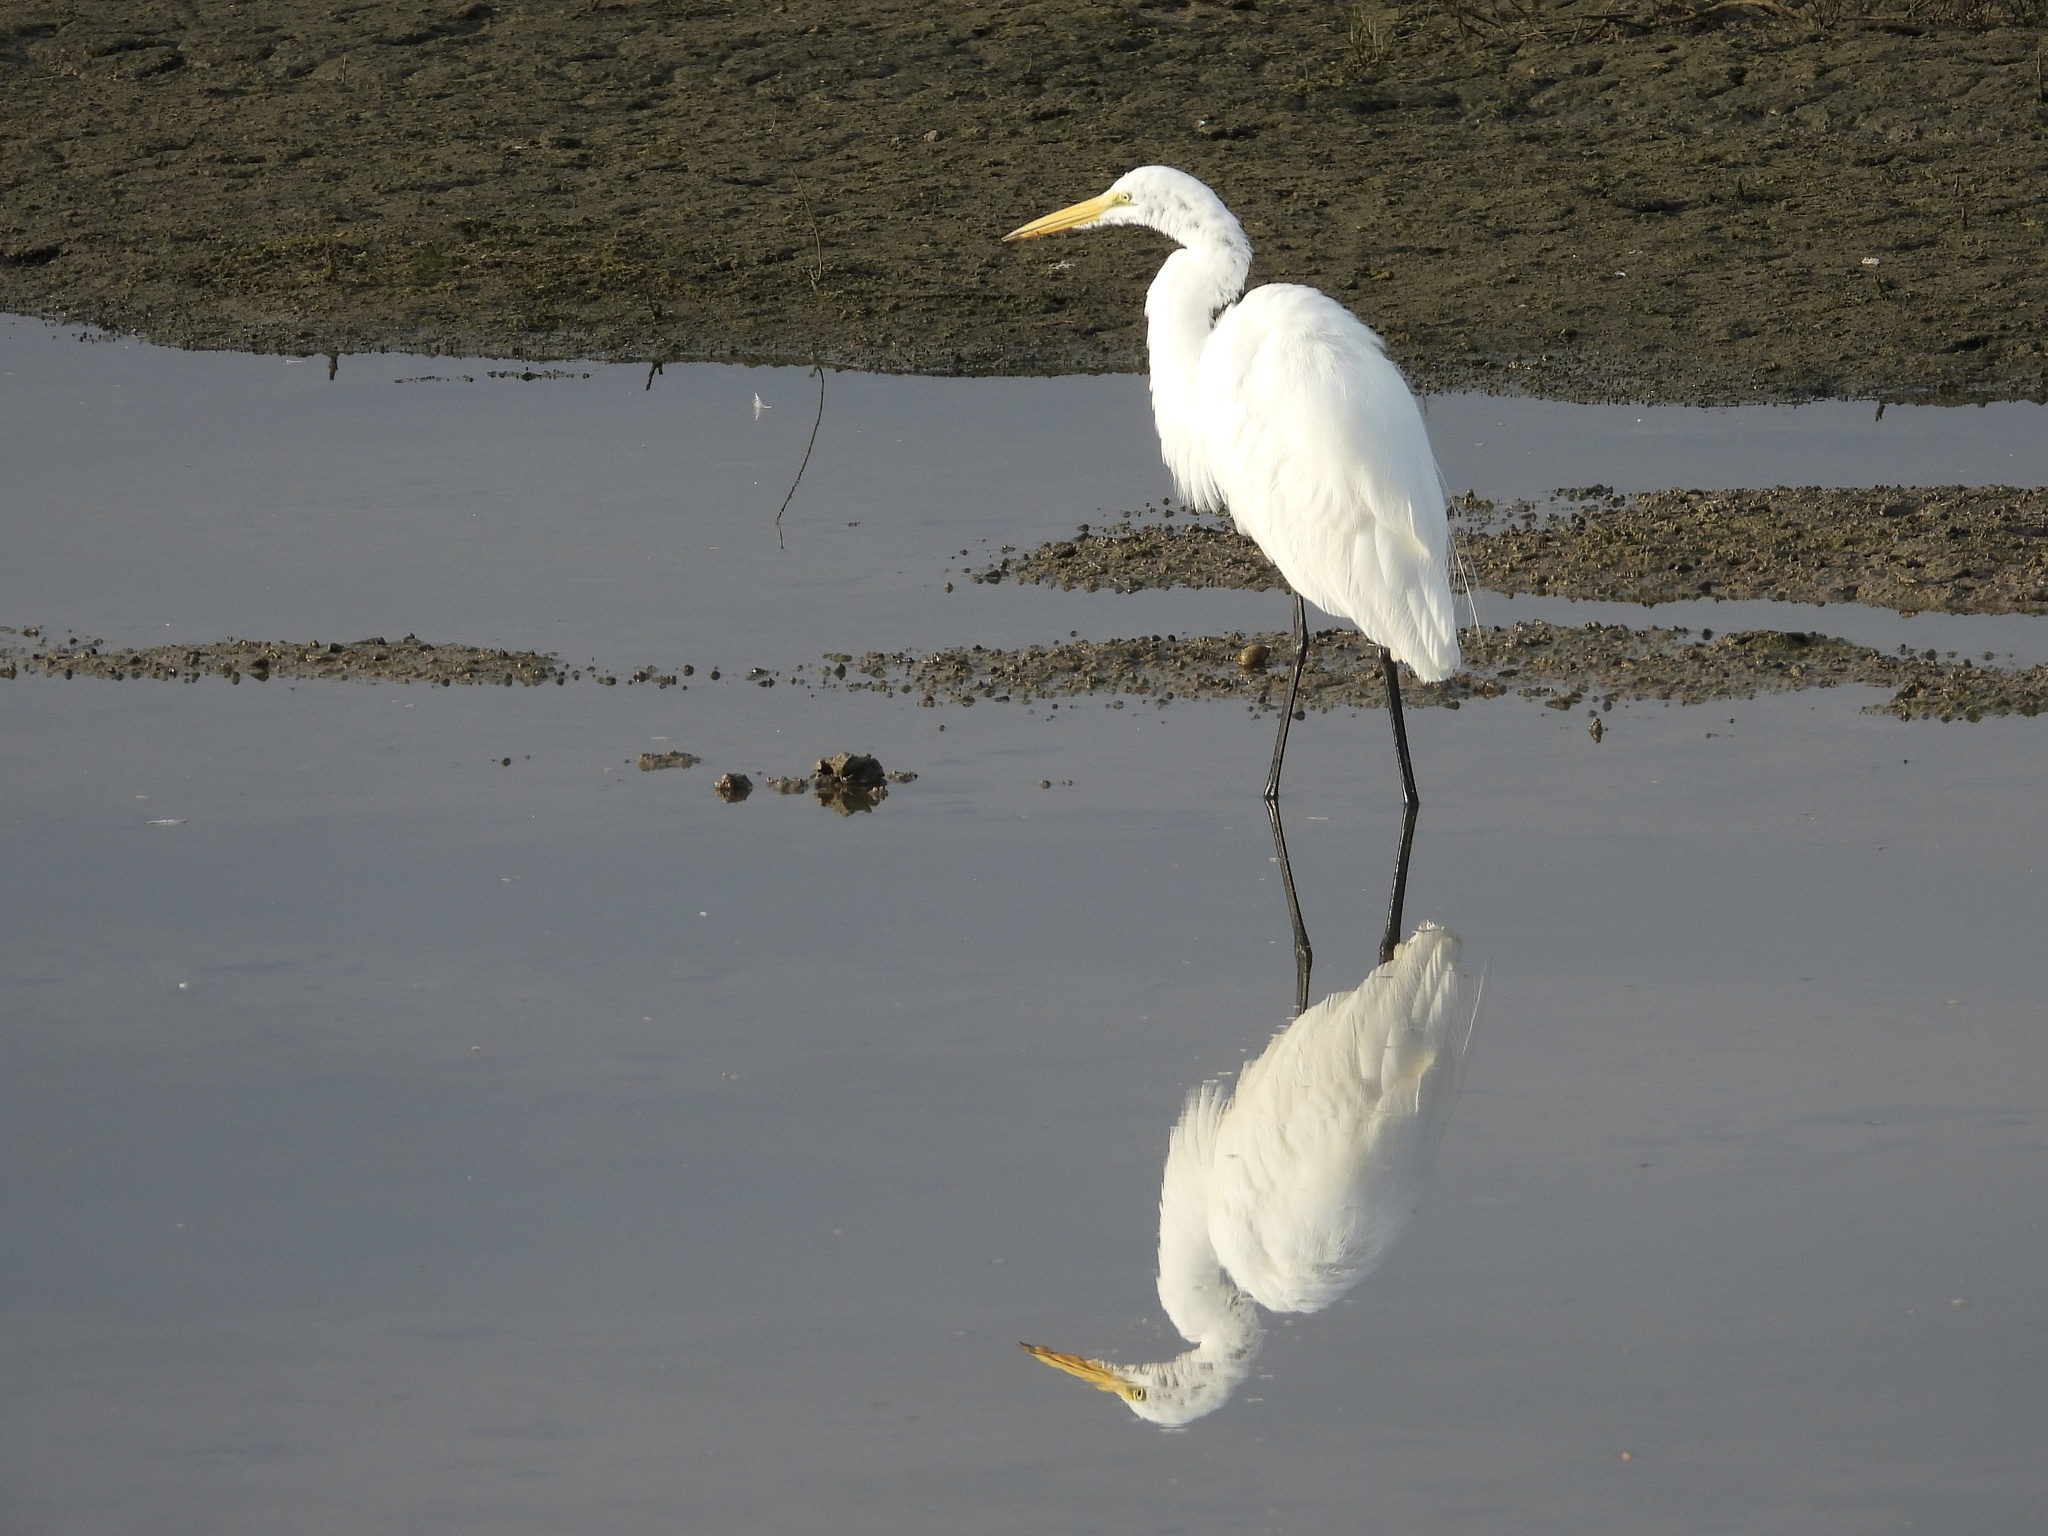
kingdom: Animalia
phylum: Chordata
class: Aves
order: Pelecaniformes
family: Ardeidae
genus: Ardea
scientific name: Ardea alba
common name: Great egret
